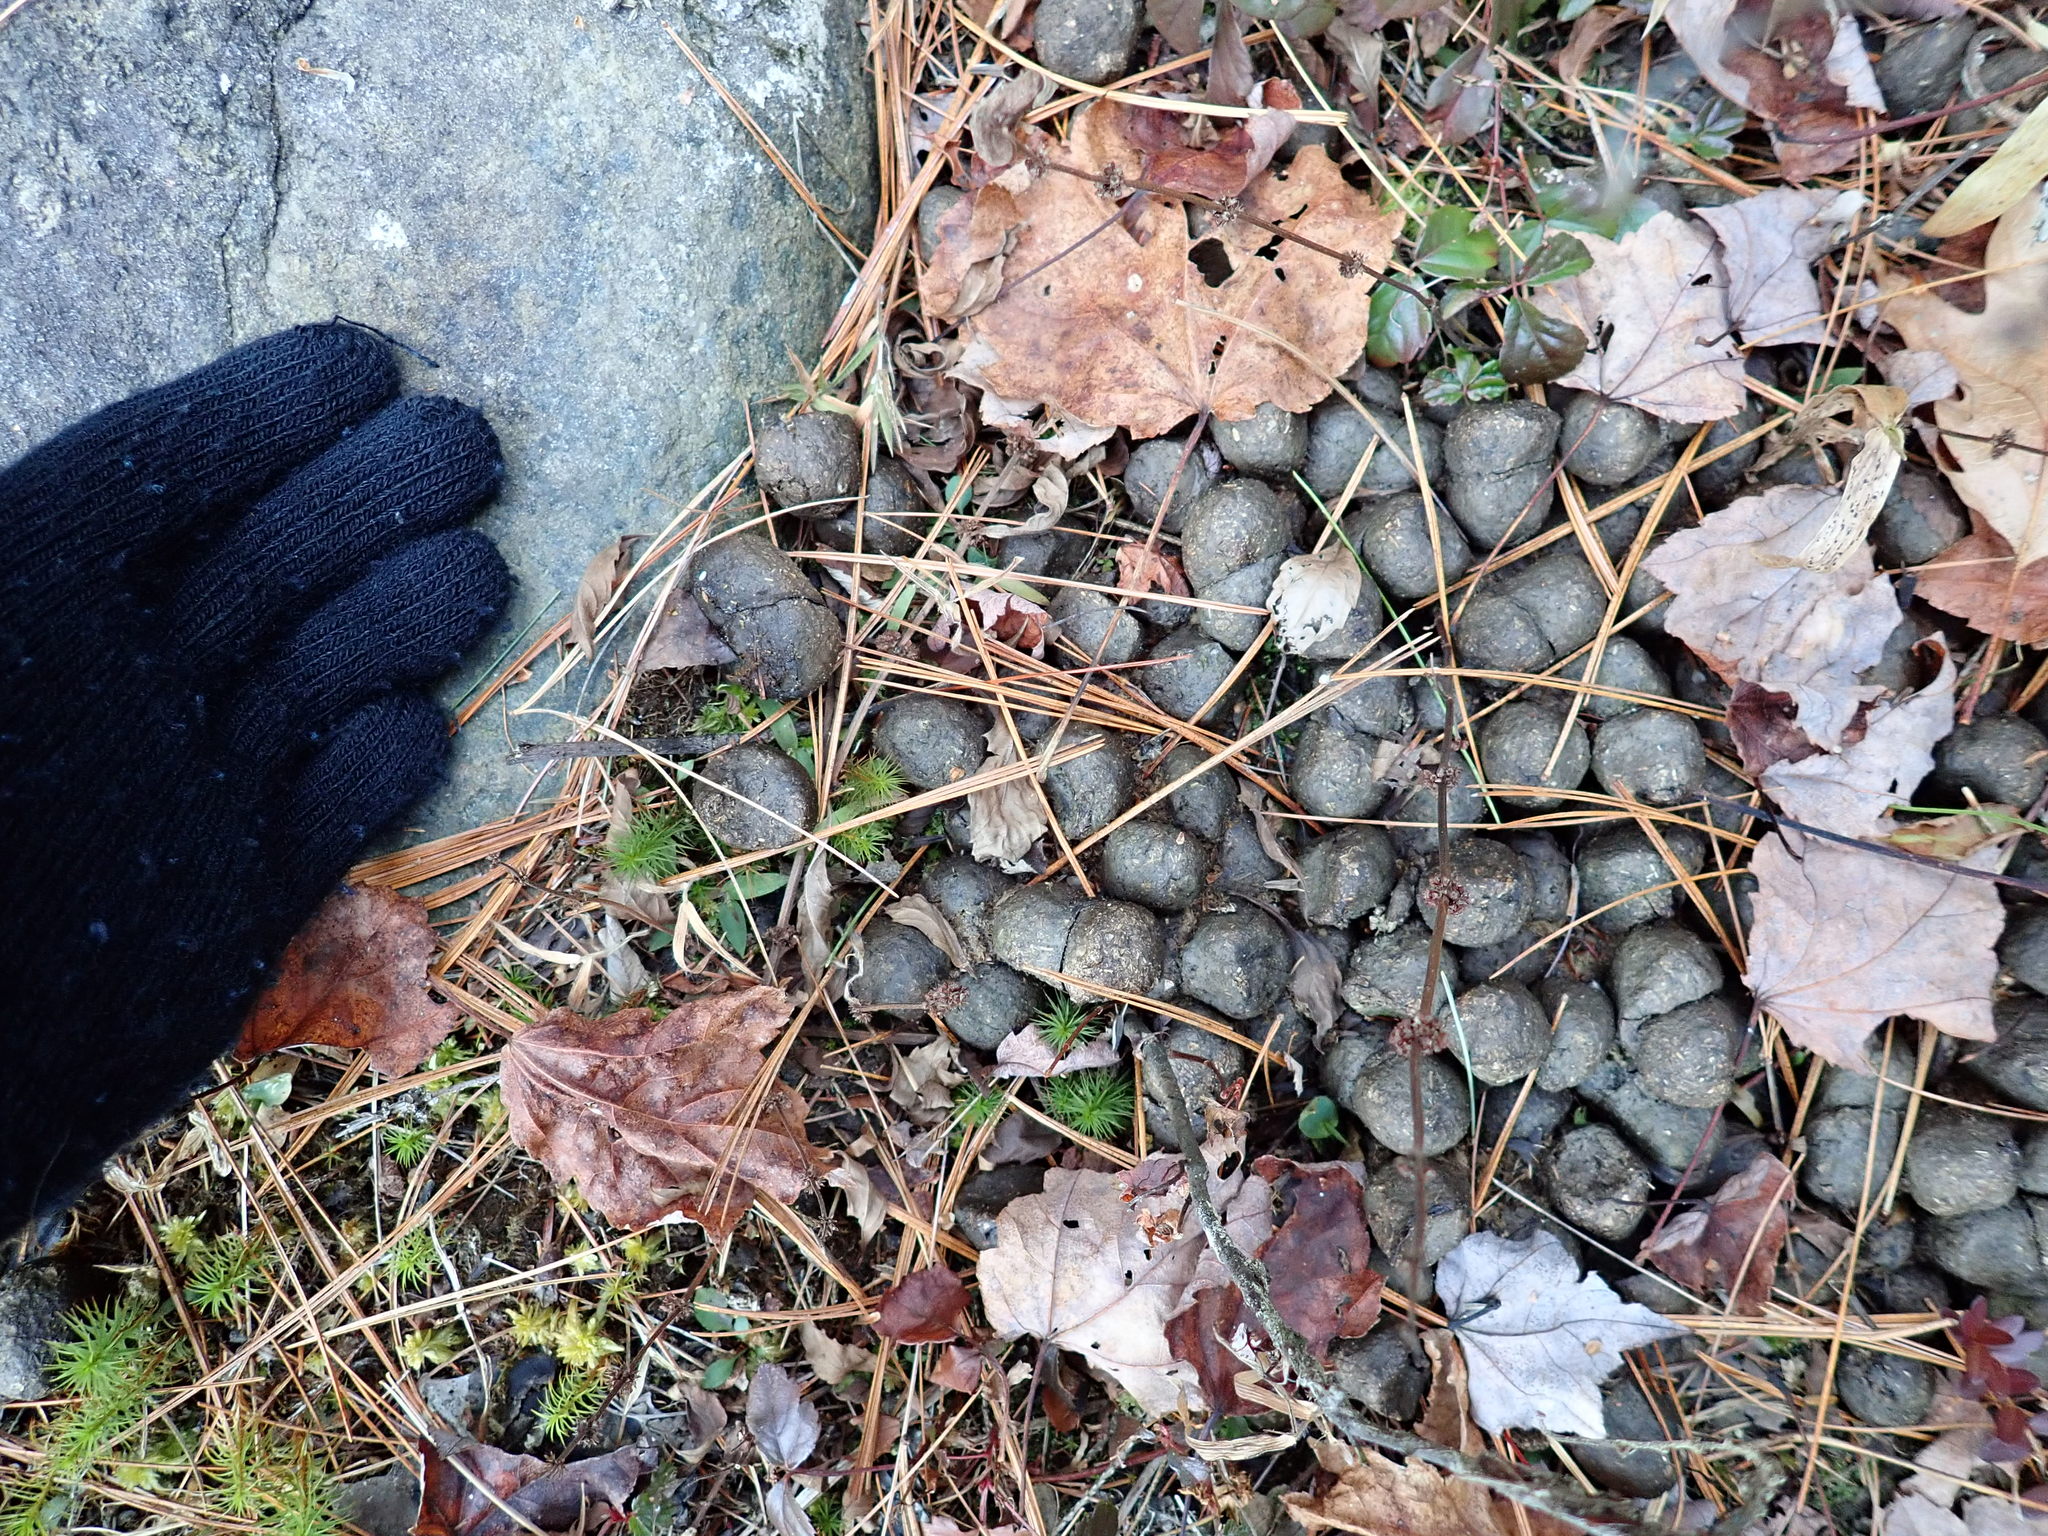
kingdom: Animalia
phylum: Chordata
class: Mammalia
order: Artiodactyla
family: Cervidae
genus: Alces
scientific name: Alces alces
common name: Moose
